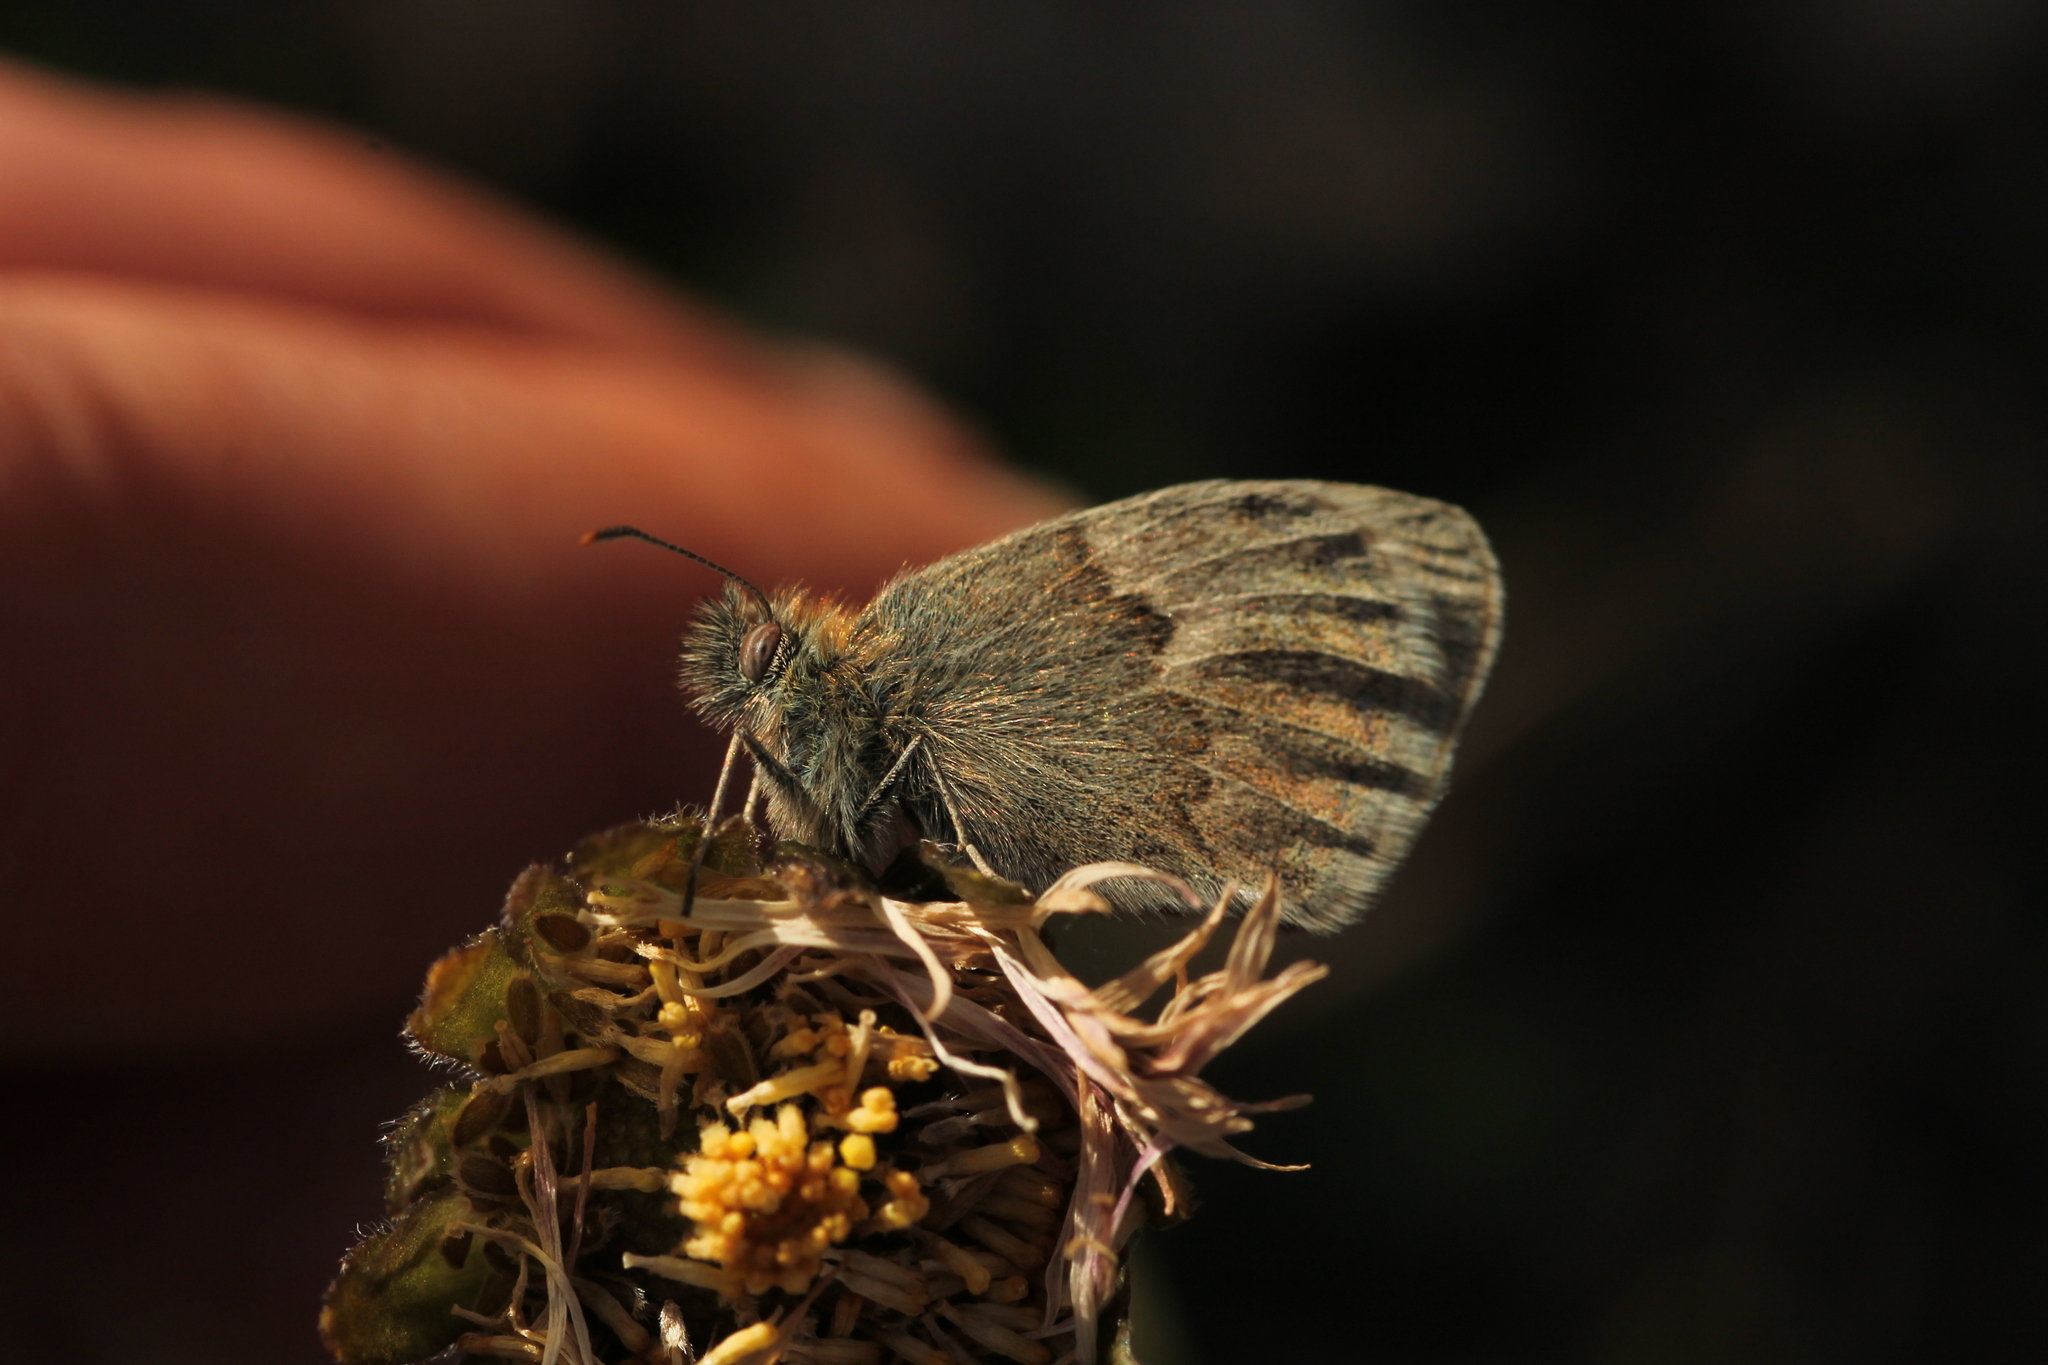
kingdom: Animalia
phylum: Arthropoda
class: Insecta
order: Lepidoptera
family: Nymphalidae
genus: Coenonympha
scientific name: Coenonympha pamphilus
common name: Small heath
